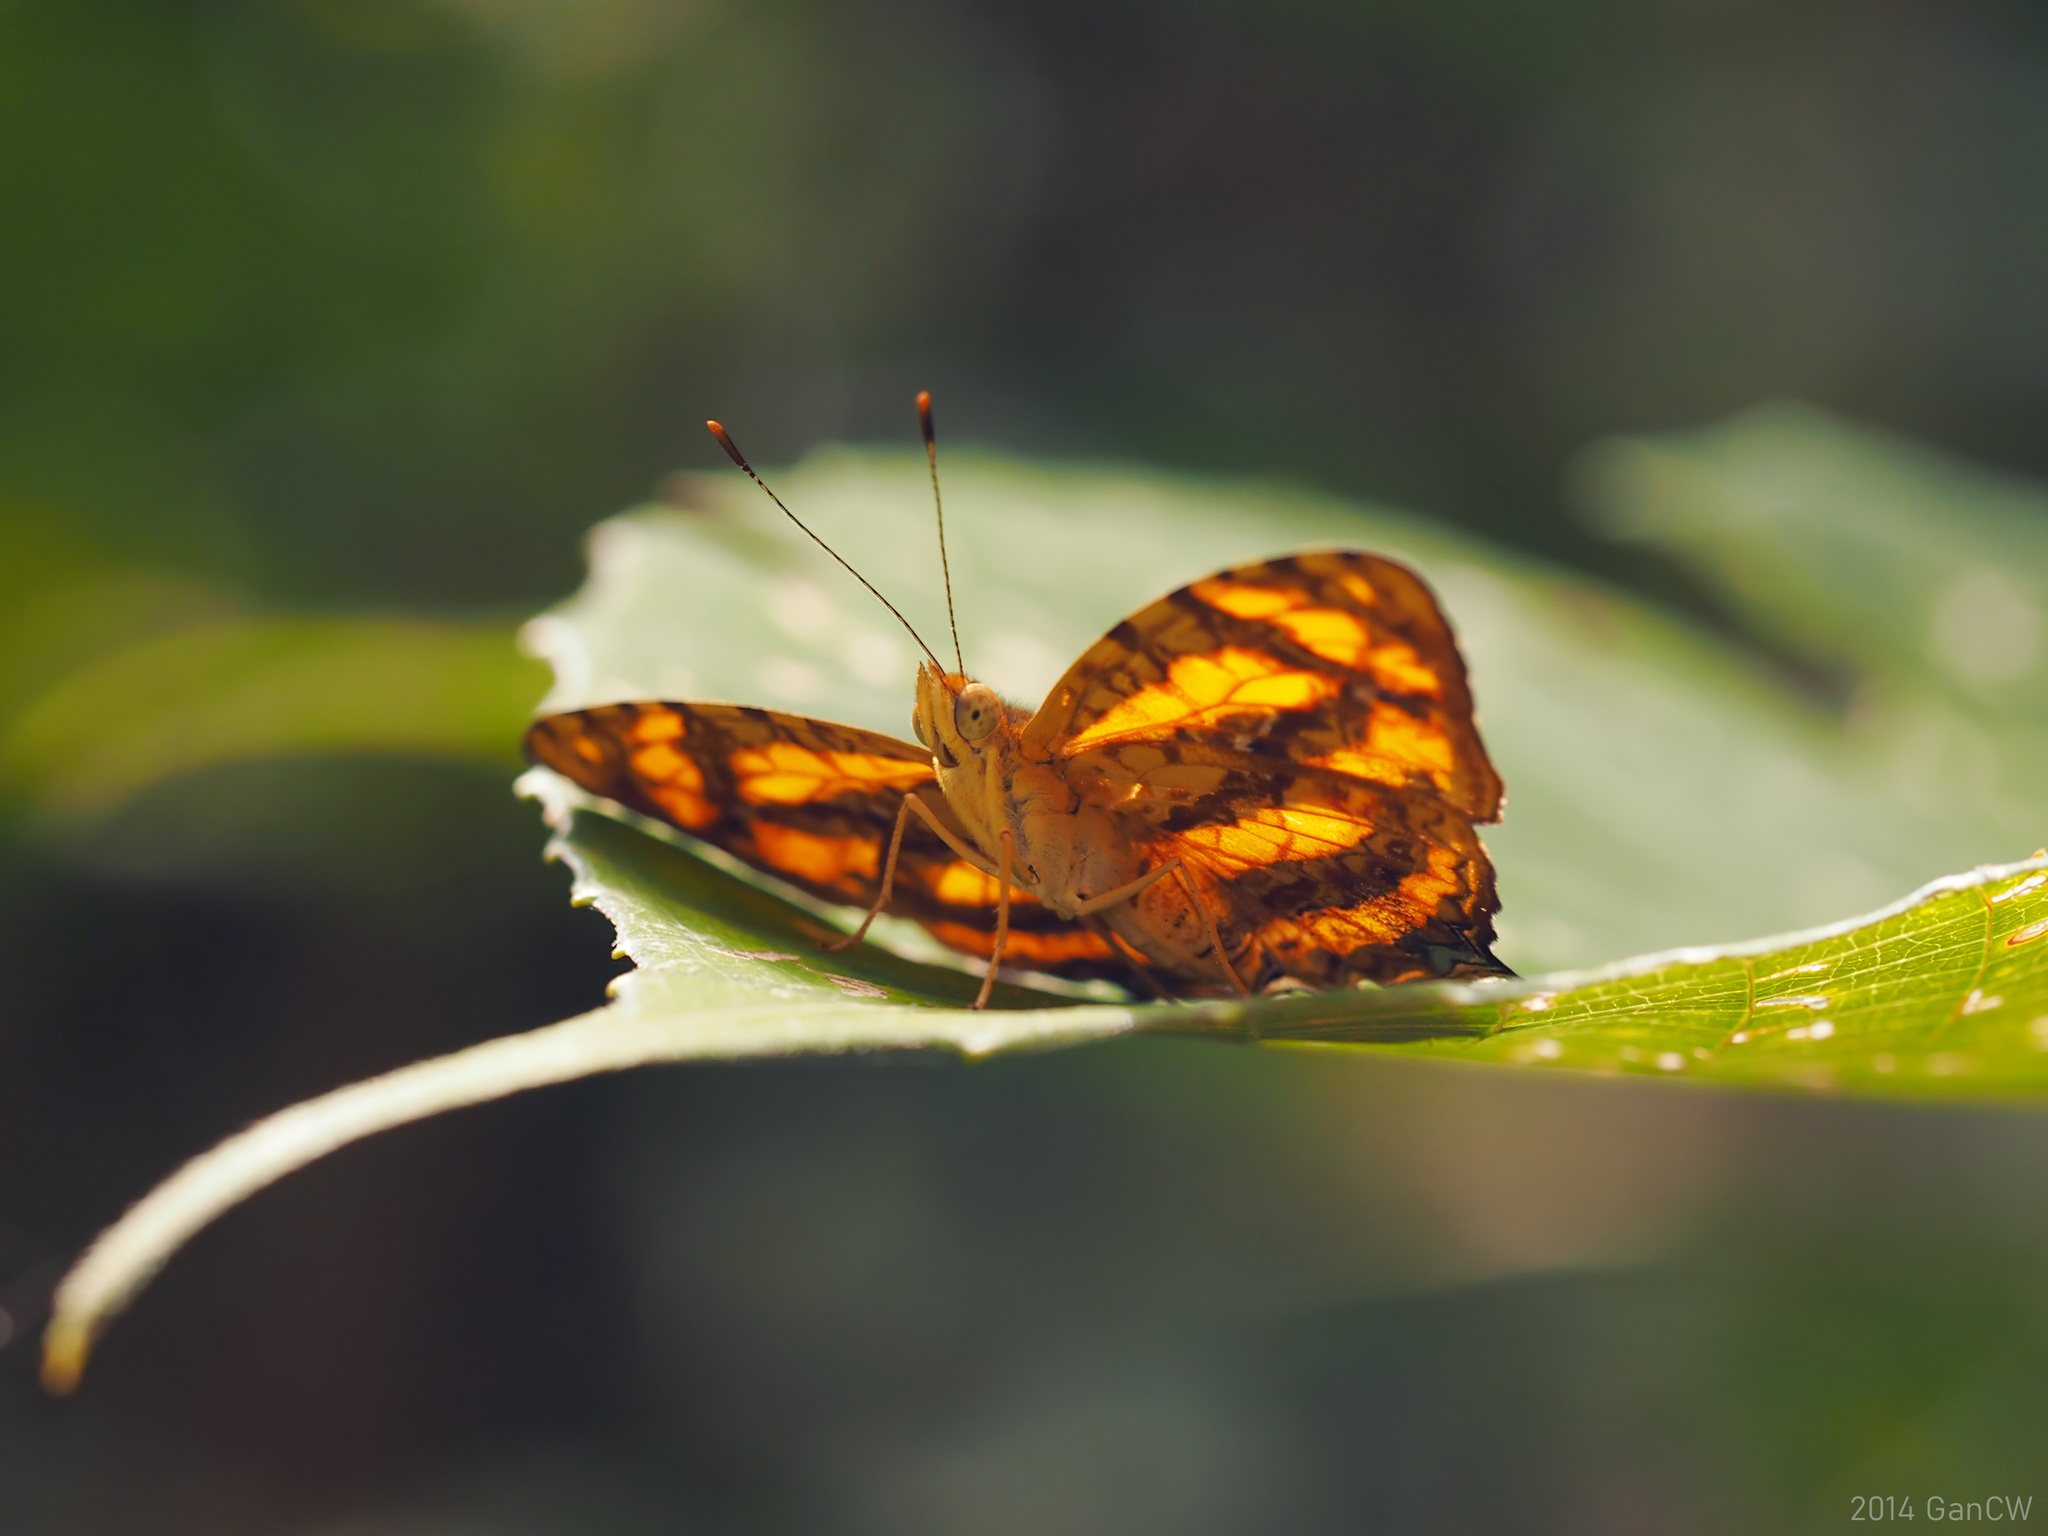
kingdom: Animalia
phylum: Arthropoda
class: Insecta
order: Lepidoptera
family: Nymphalidae
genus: Symbrenthia
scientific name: Symbrenthia hypselis
